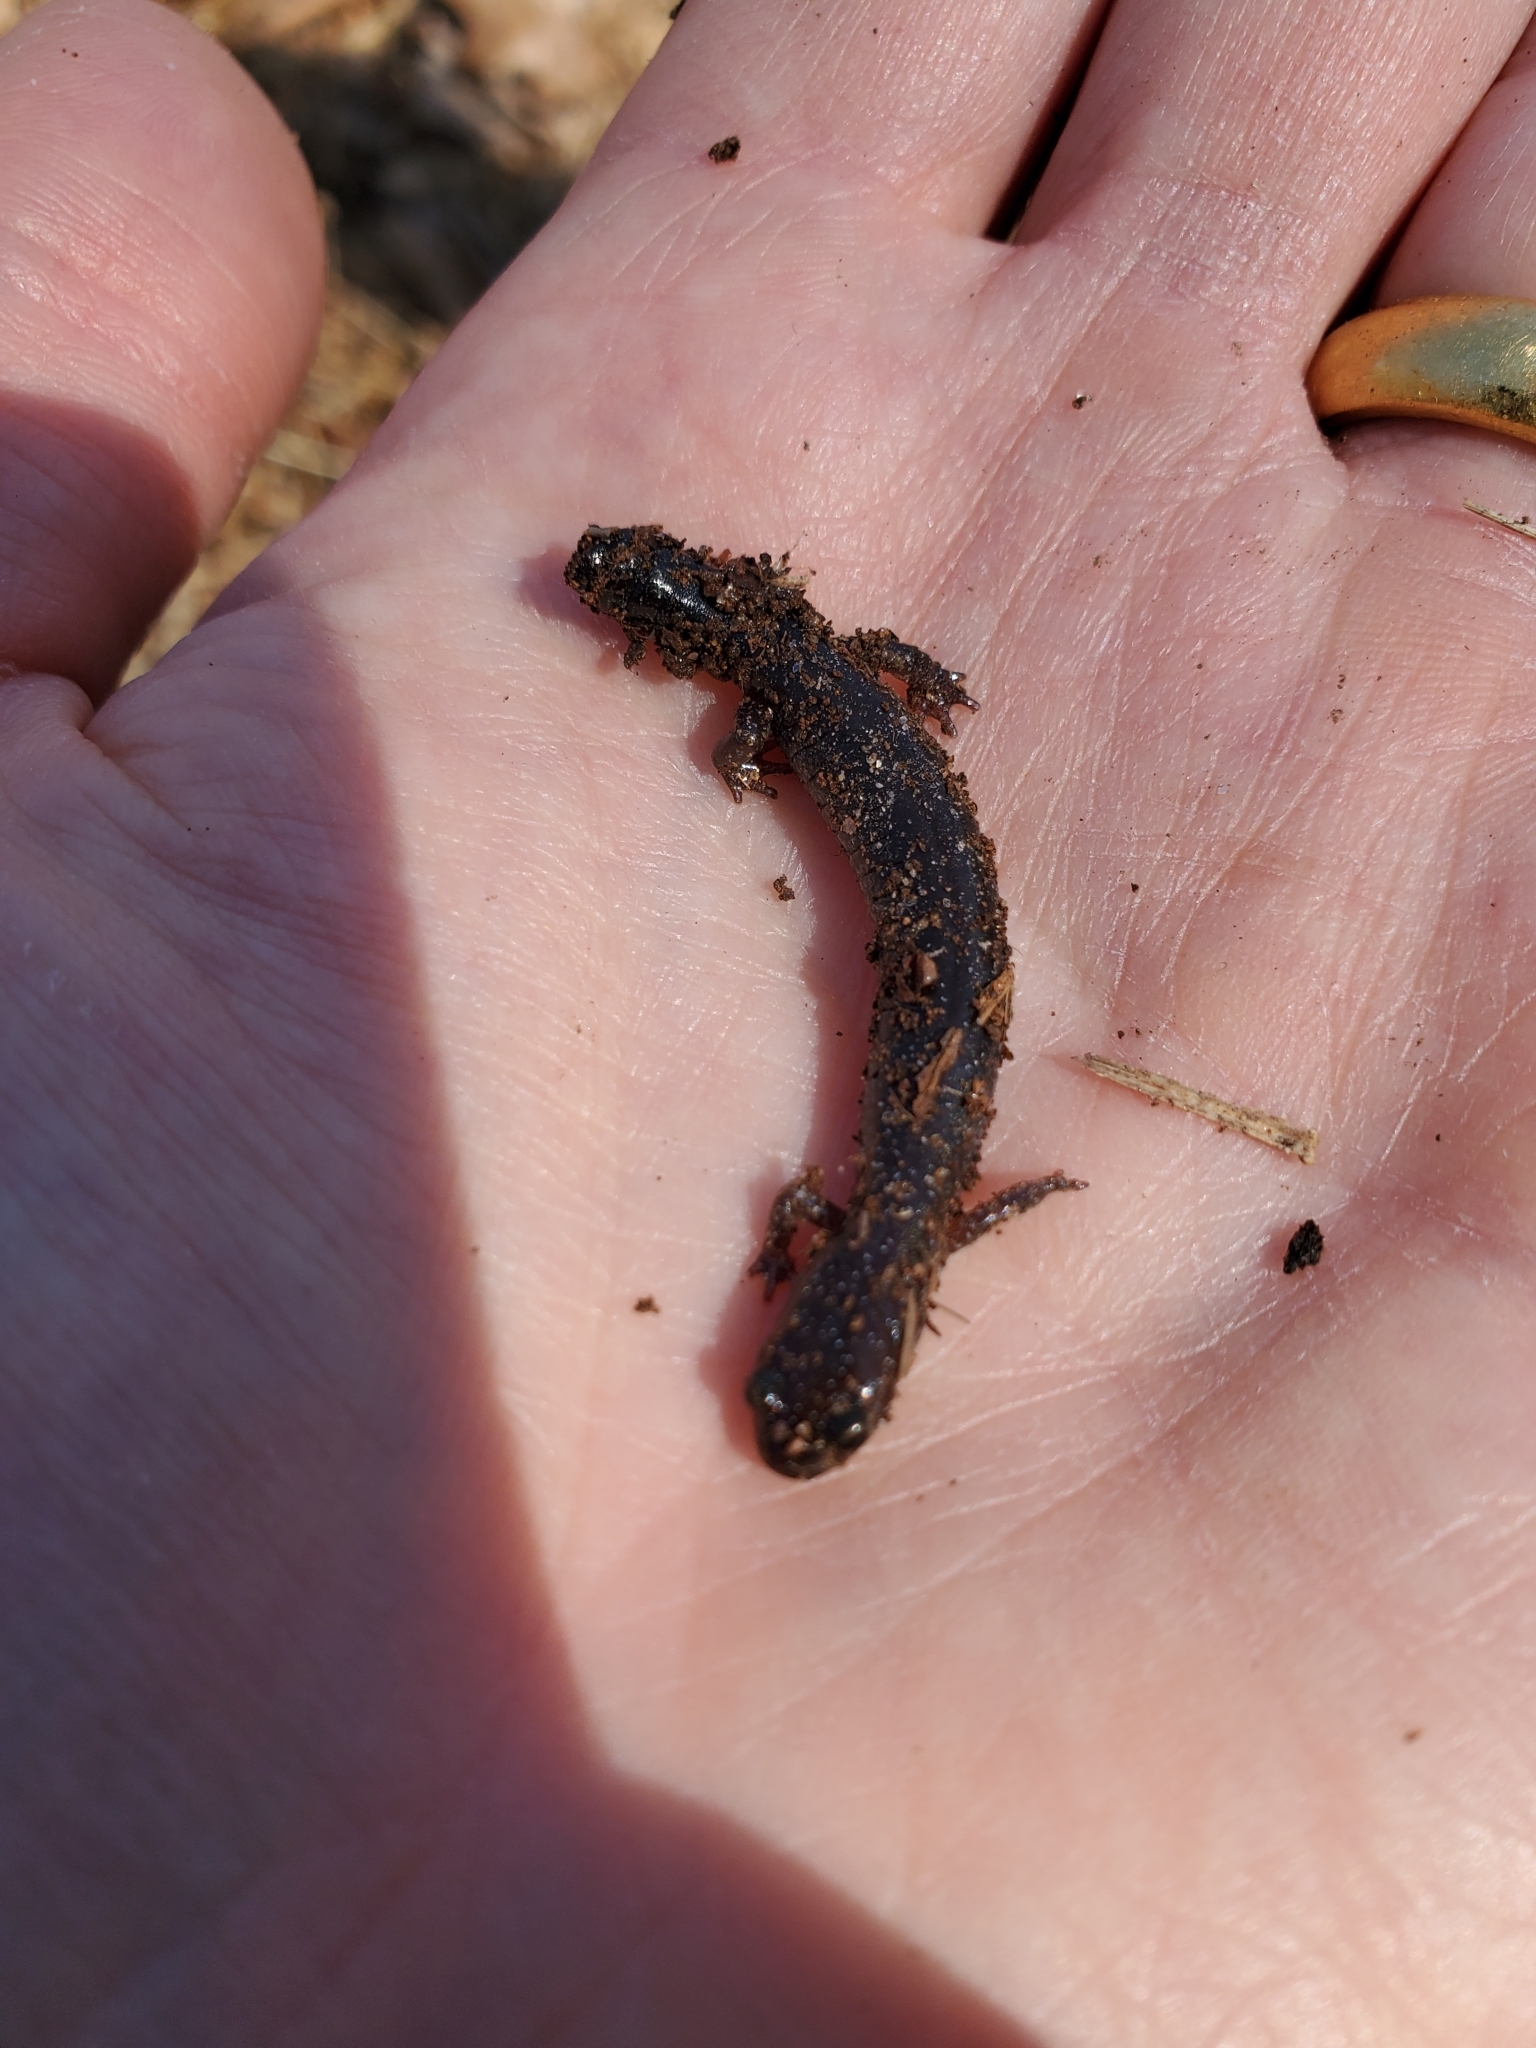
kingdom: Animalia
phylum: Chordata
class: Amphibia
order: Caudata
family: Plethodontidae
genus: Plethodon
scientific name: Plethodon cinereus
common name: Redback salamander
